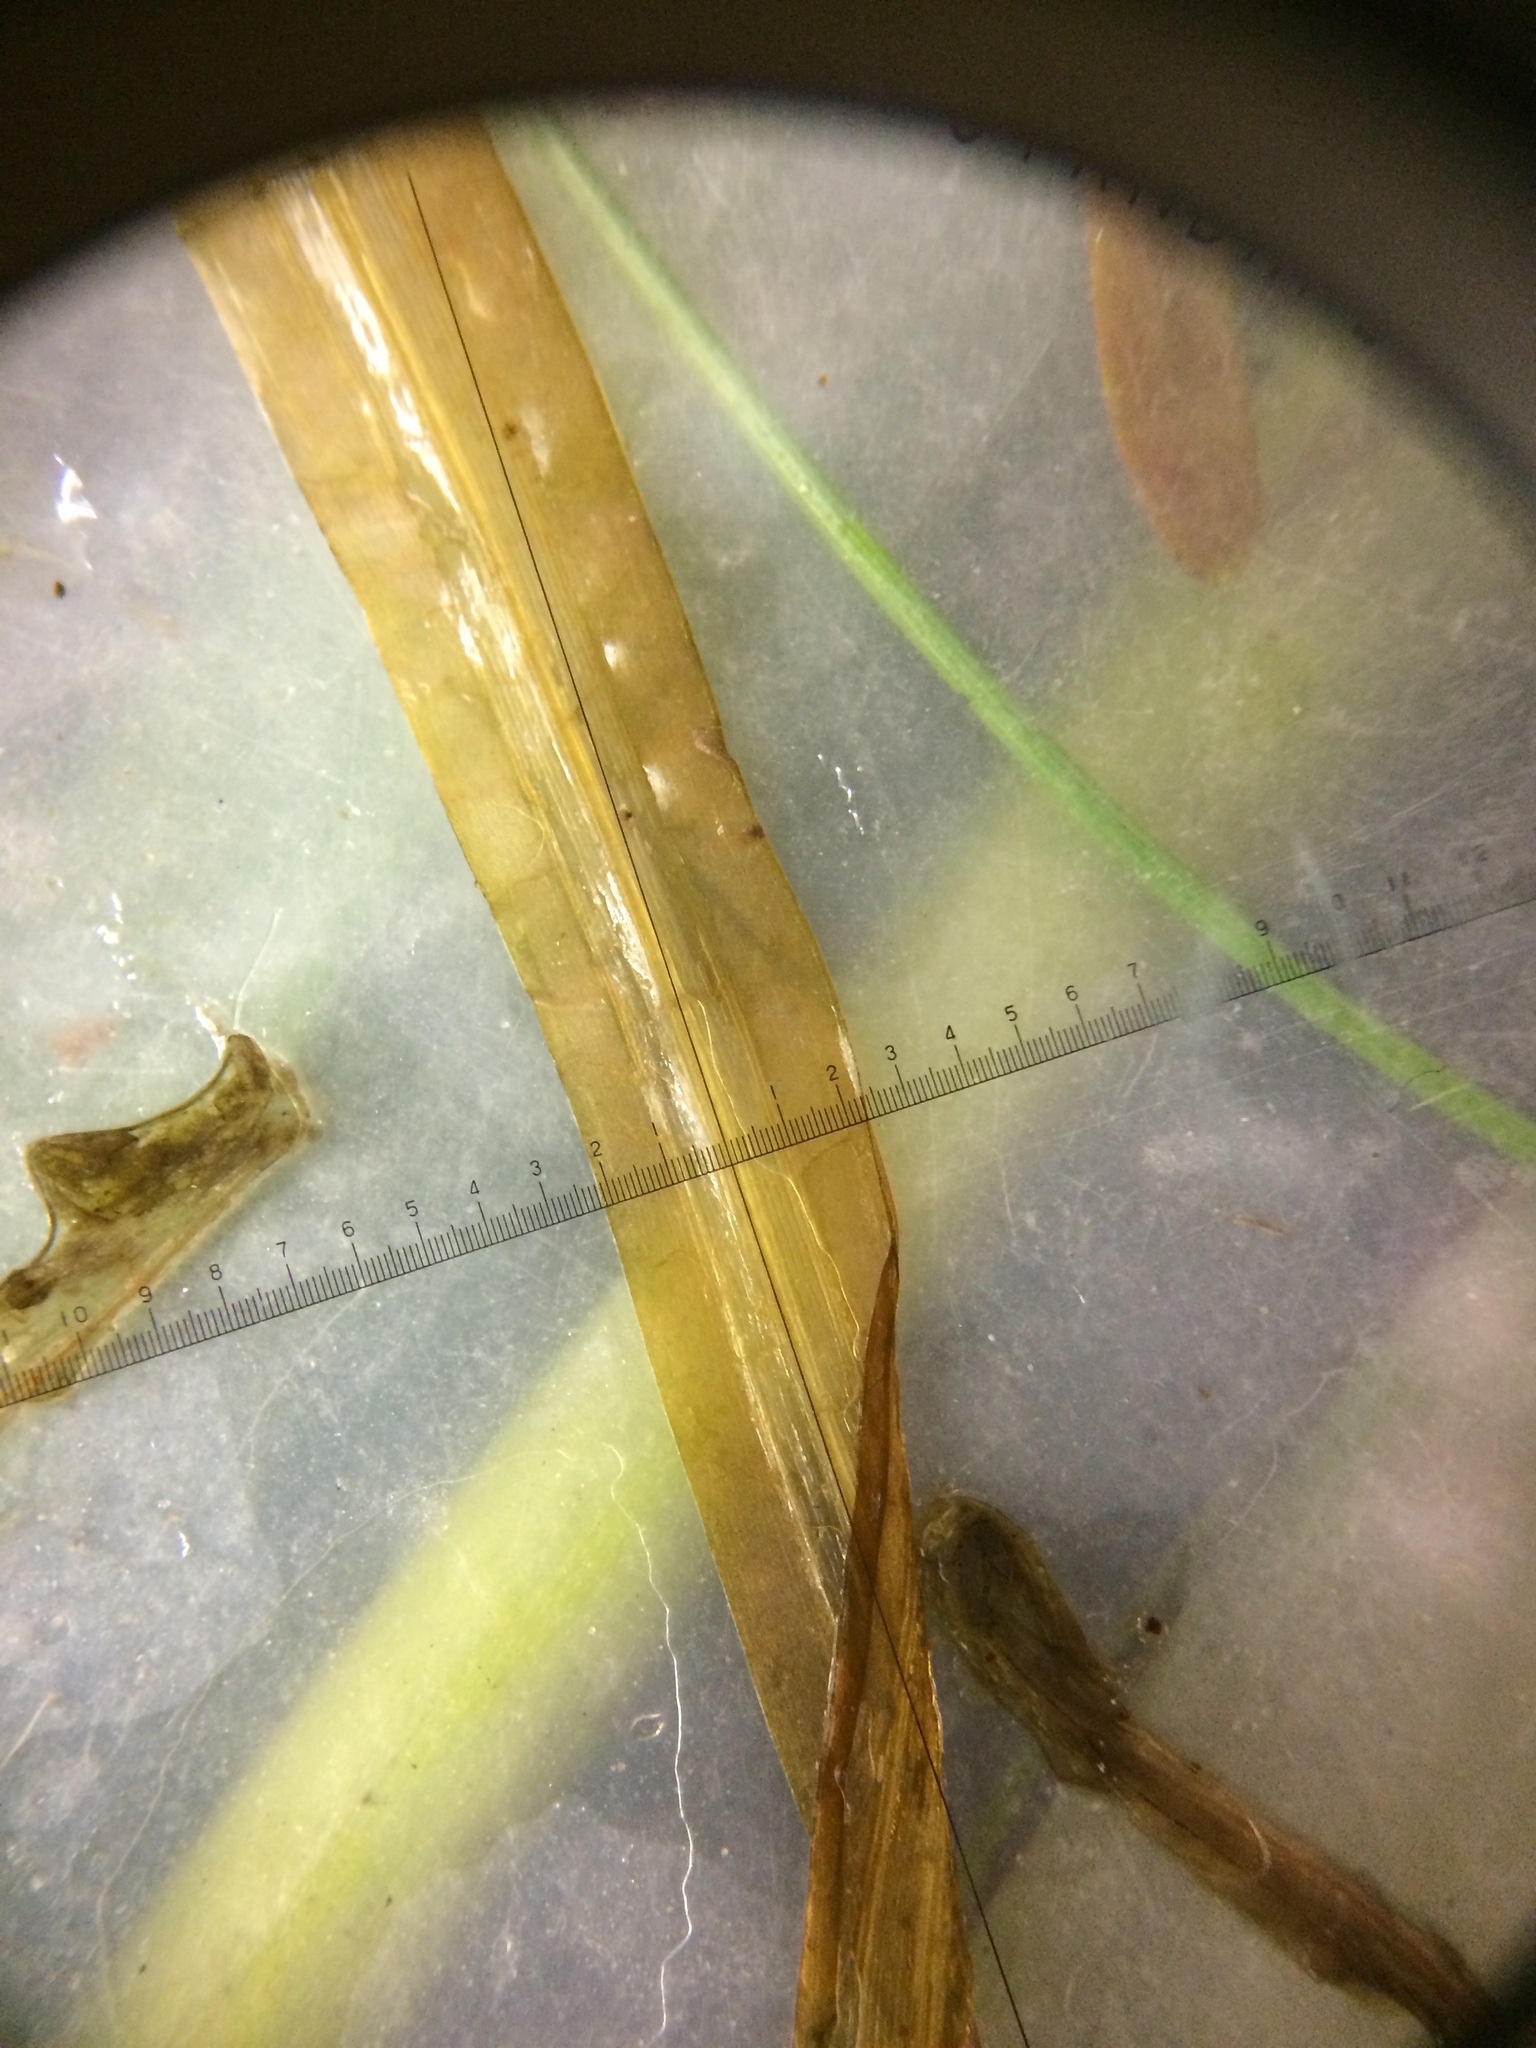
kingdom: Plantae
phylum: Tracheophyta
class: Liliopsida
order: Alismatales
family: Potamogetonaceae
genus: Potamogeton
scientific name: Potamogeton epihydrus
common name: American pondweed
